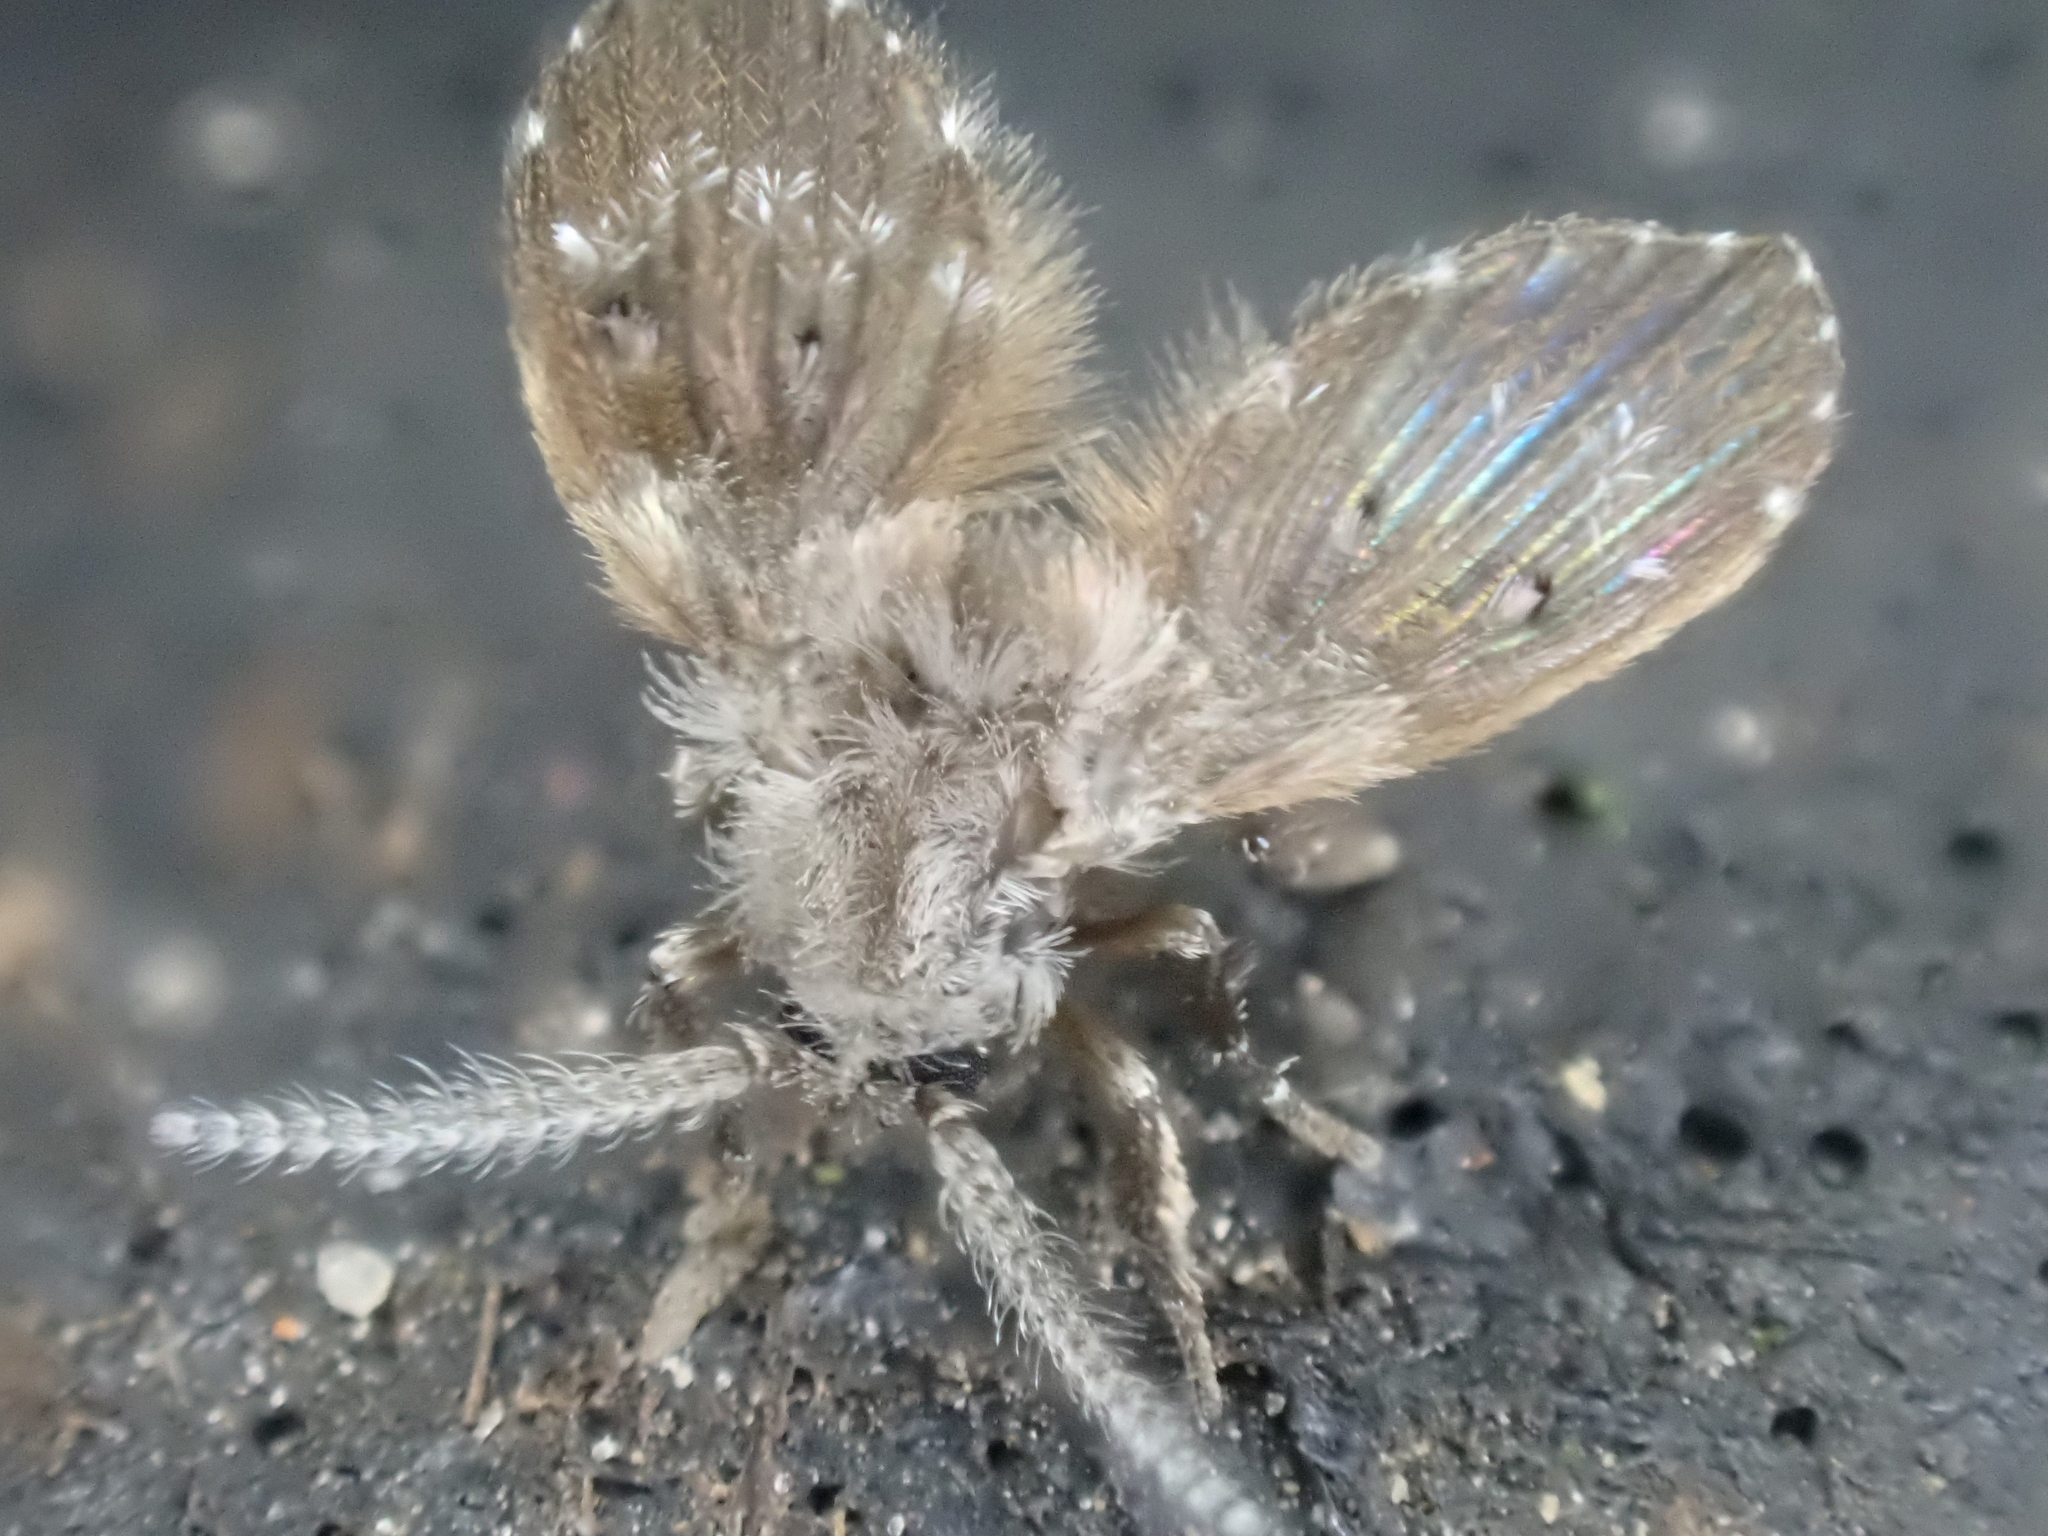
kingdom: Animalia
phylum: Arthropoda
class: Insecta
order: Diptera
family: Psychodidae
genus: Clogmia
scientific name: Clogmia albipunctatus
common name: White-spotted moth fly
